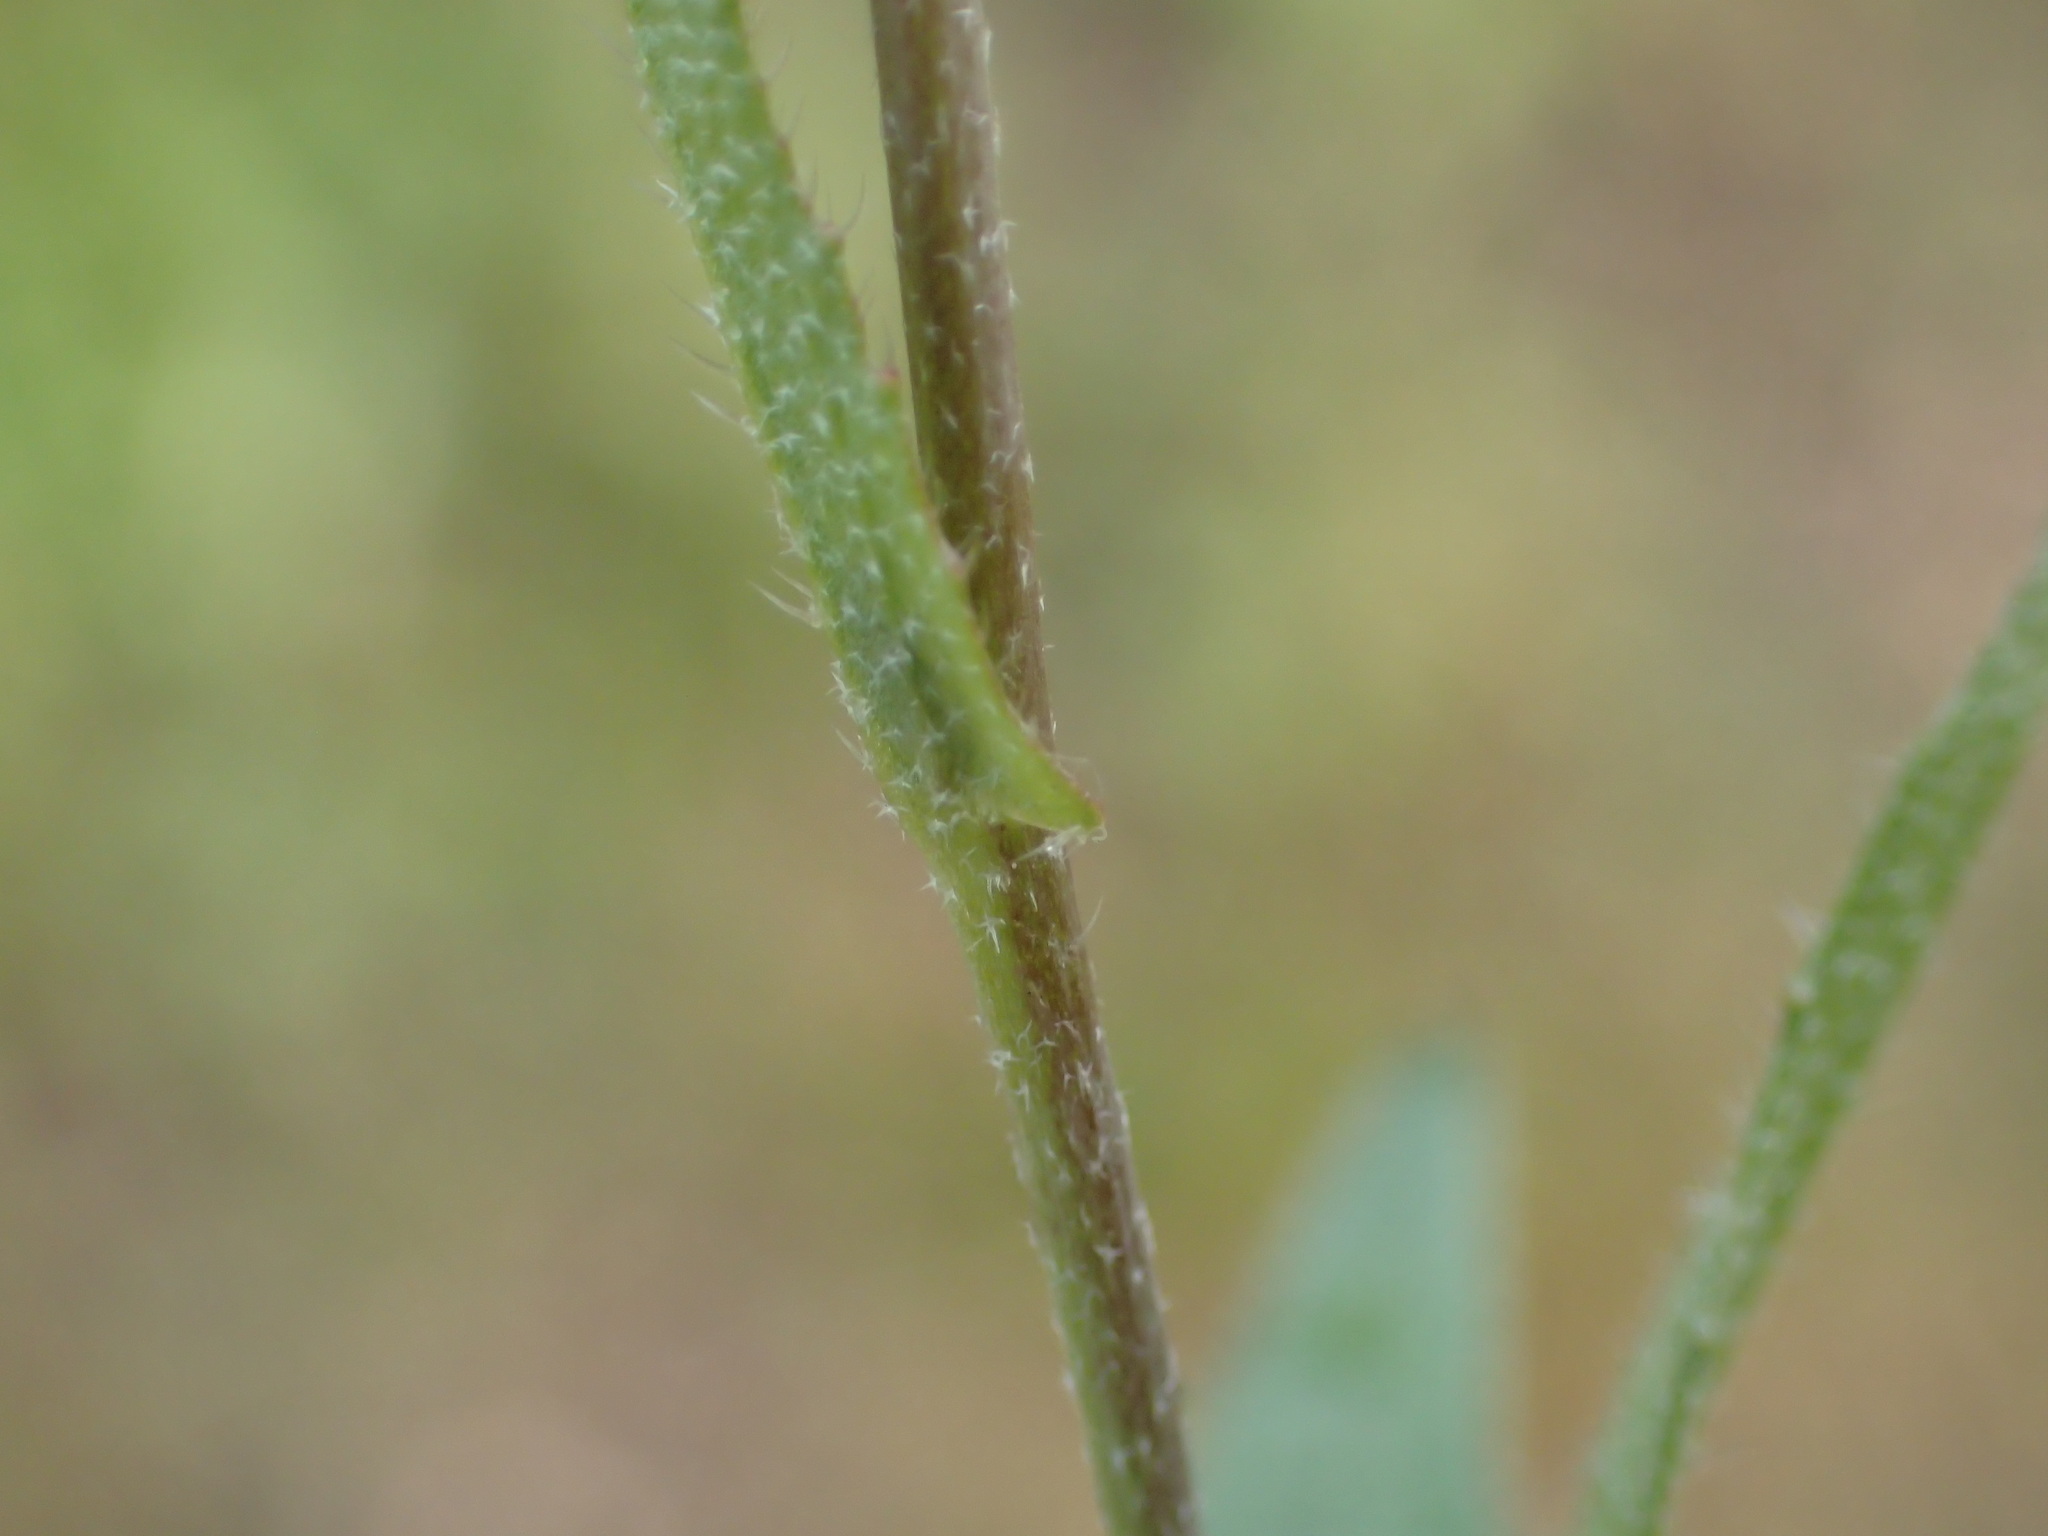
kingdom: Plantae
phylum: Tracheophyta
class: Magnoliopsida
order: Brassicales
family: Brassicaceae
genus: Capsella
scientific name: Capsella bursa-pastoris
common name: Shepherd's purse
